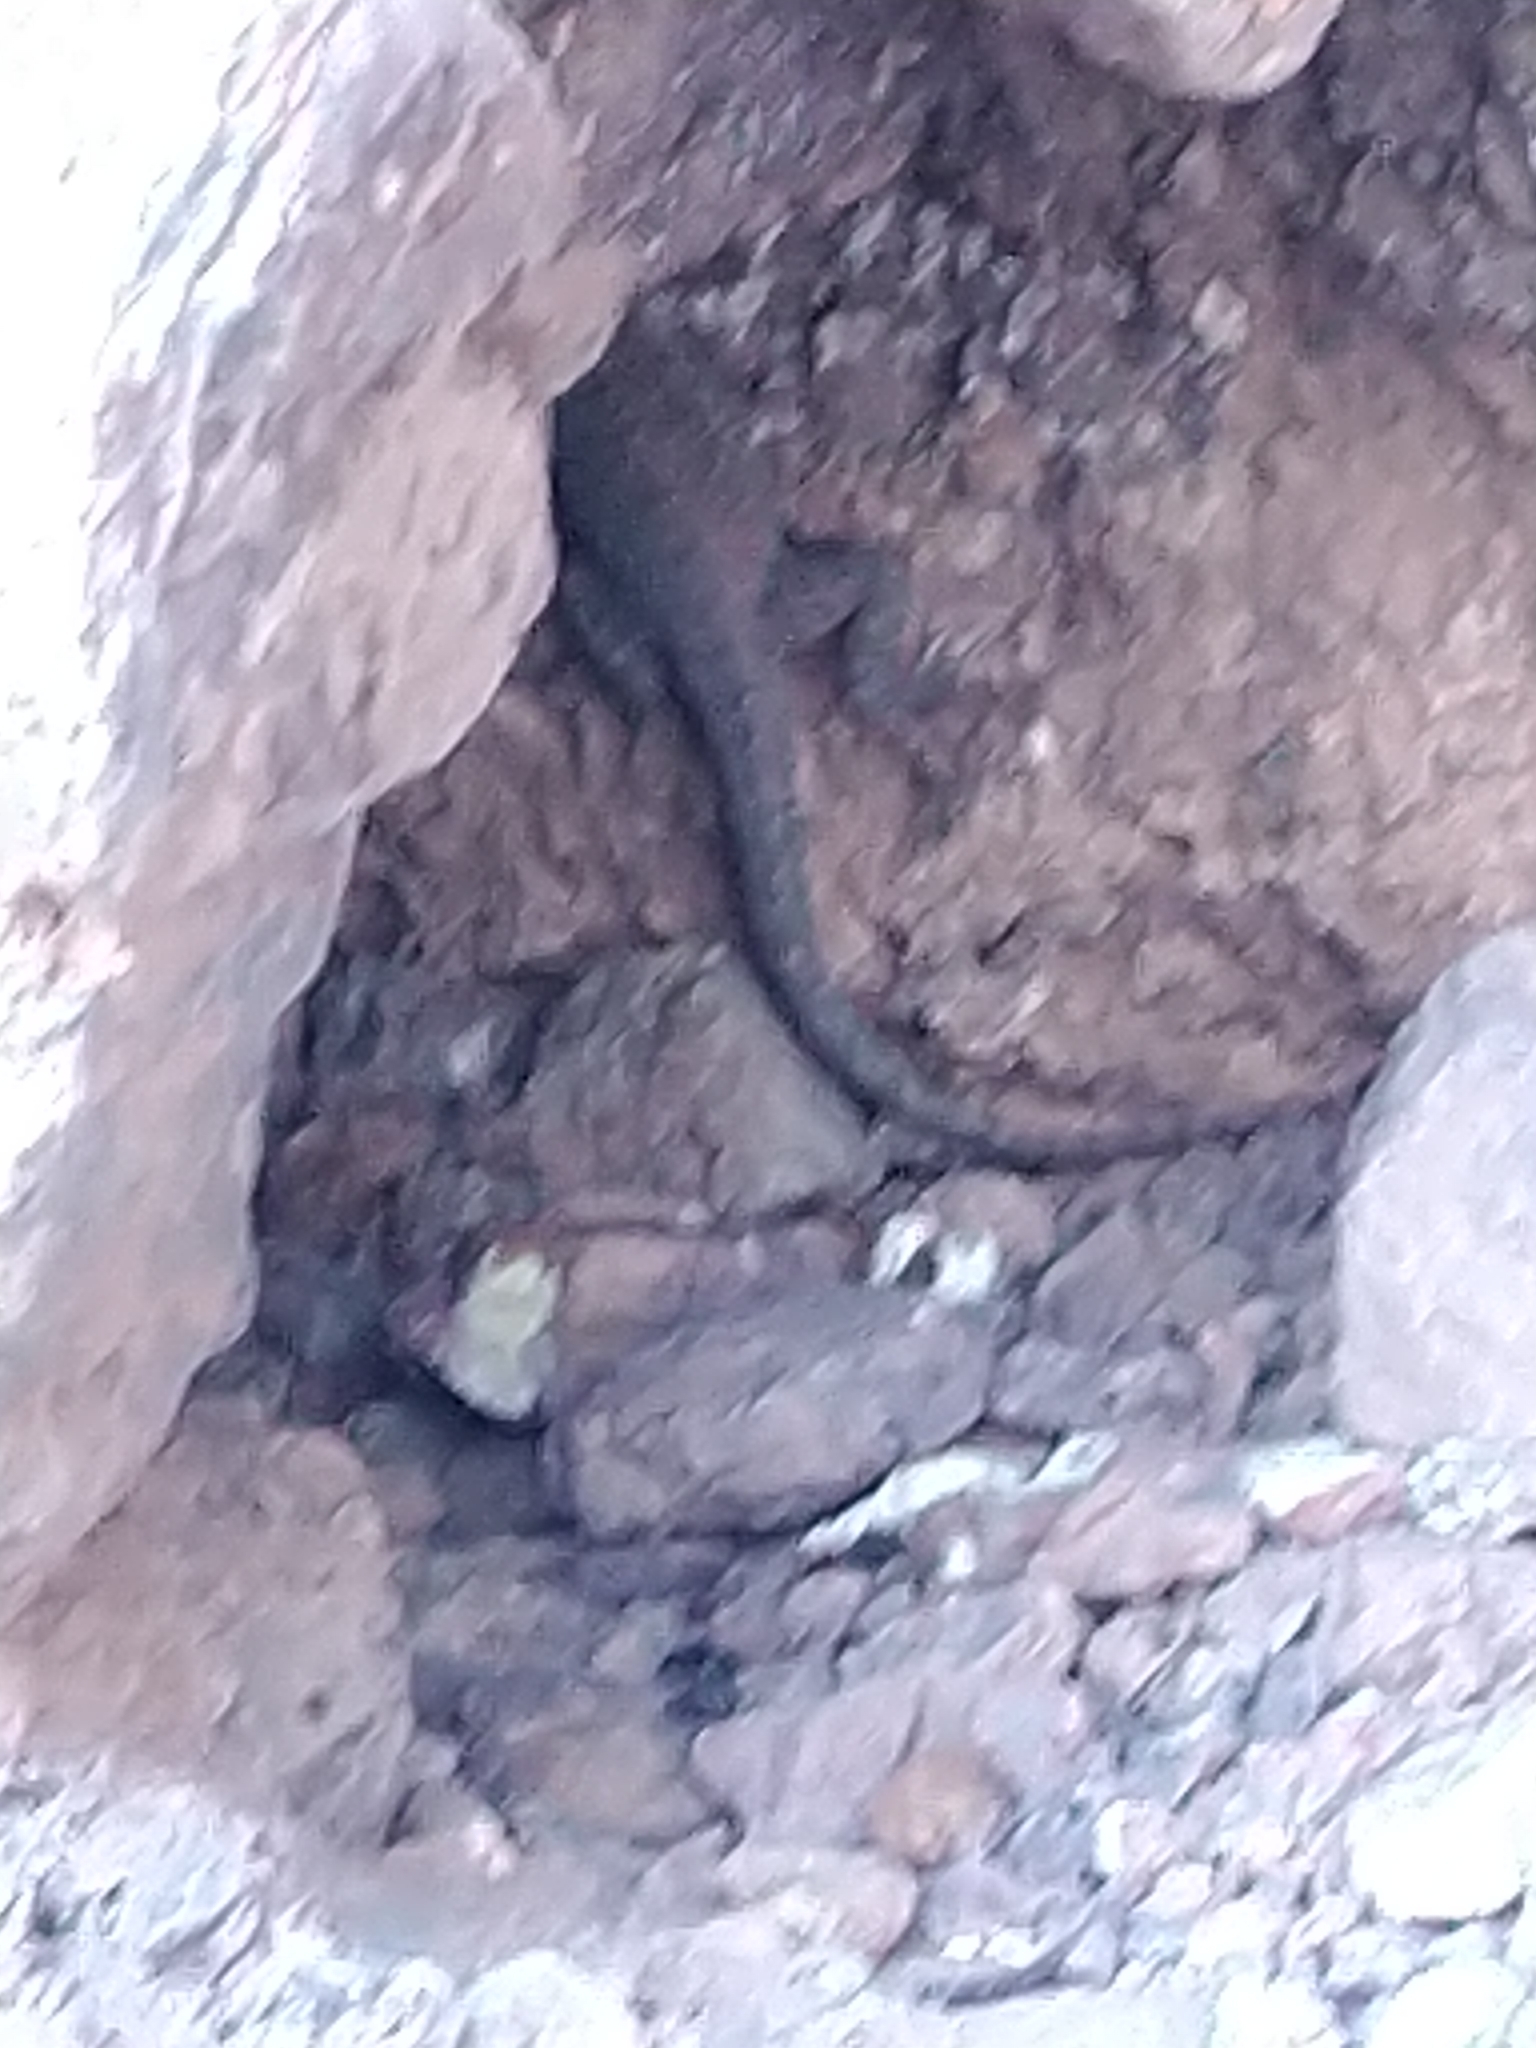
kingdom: Animalia
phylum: Chordata
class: Squamata
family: Phrynosomatidae
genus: Uta
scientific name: Uta stansburiana
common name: Side-blotched lizard
